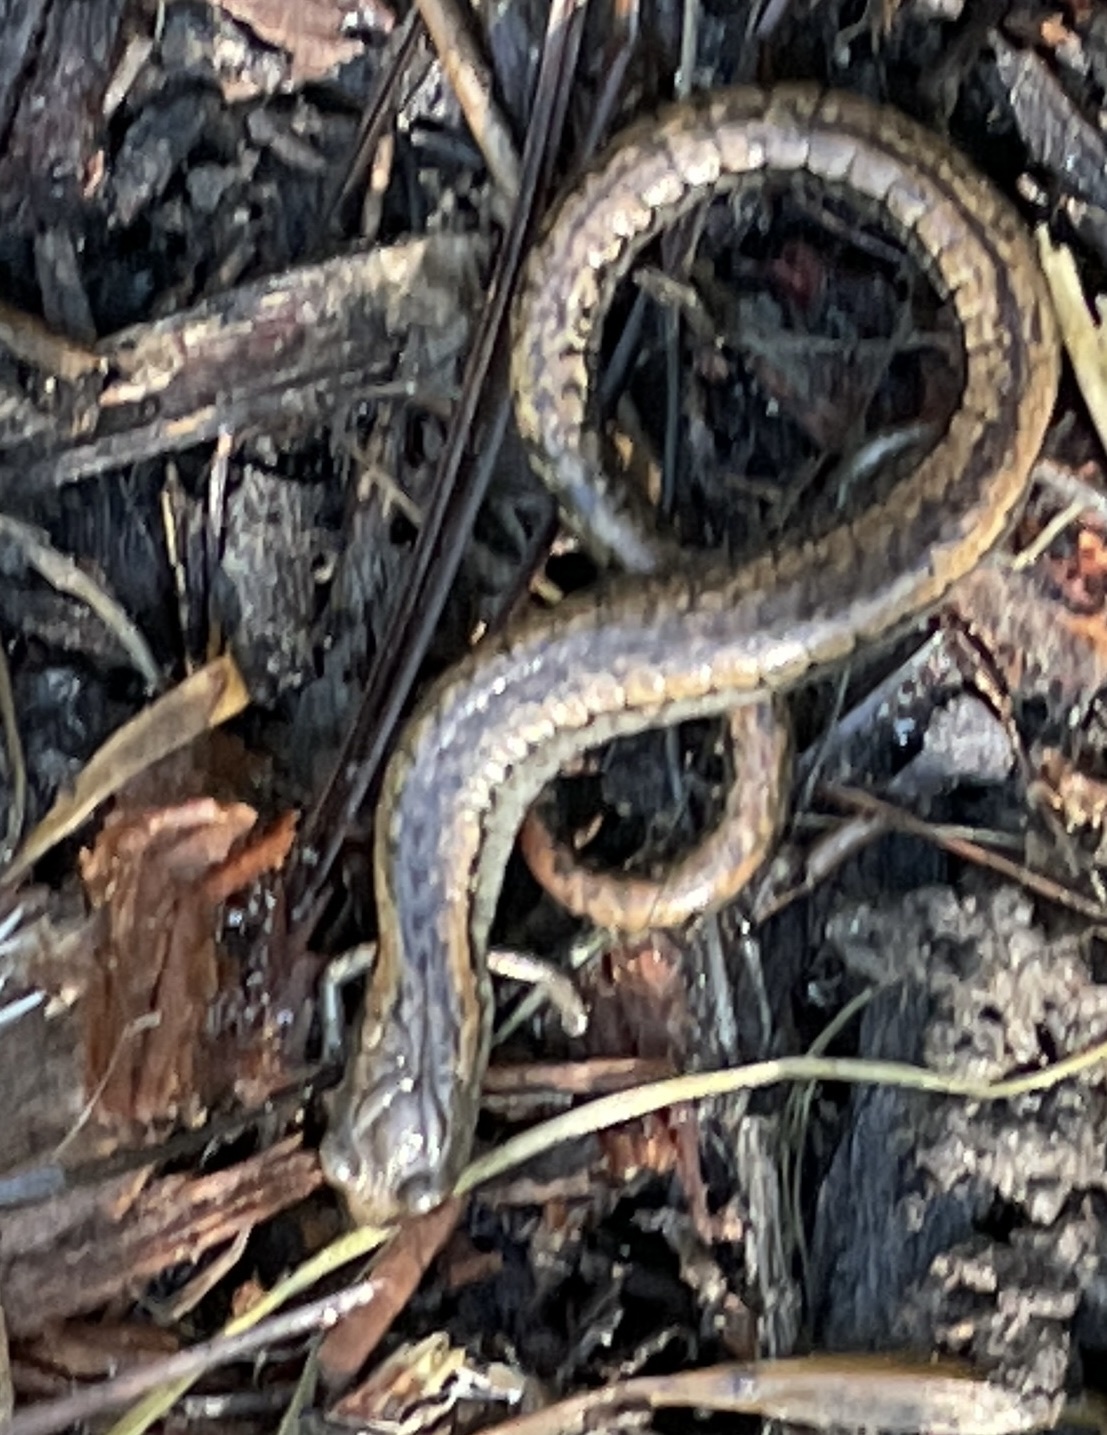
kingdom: Animalia
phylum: Chordata
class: Amphibia
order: Caudata
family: Plethodontidae
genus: Batrachoseps
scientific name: Batrachoseps attenuatus
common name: California slender salamander
